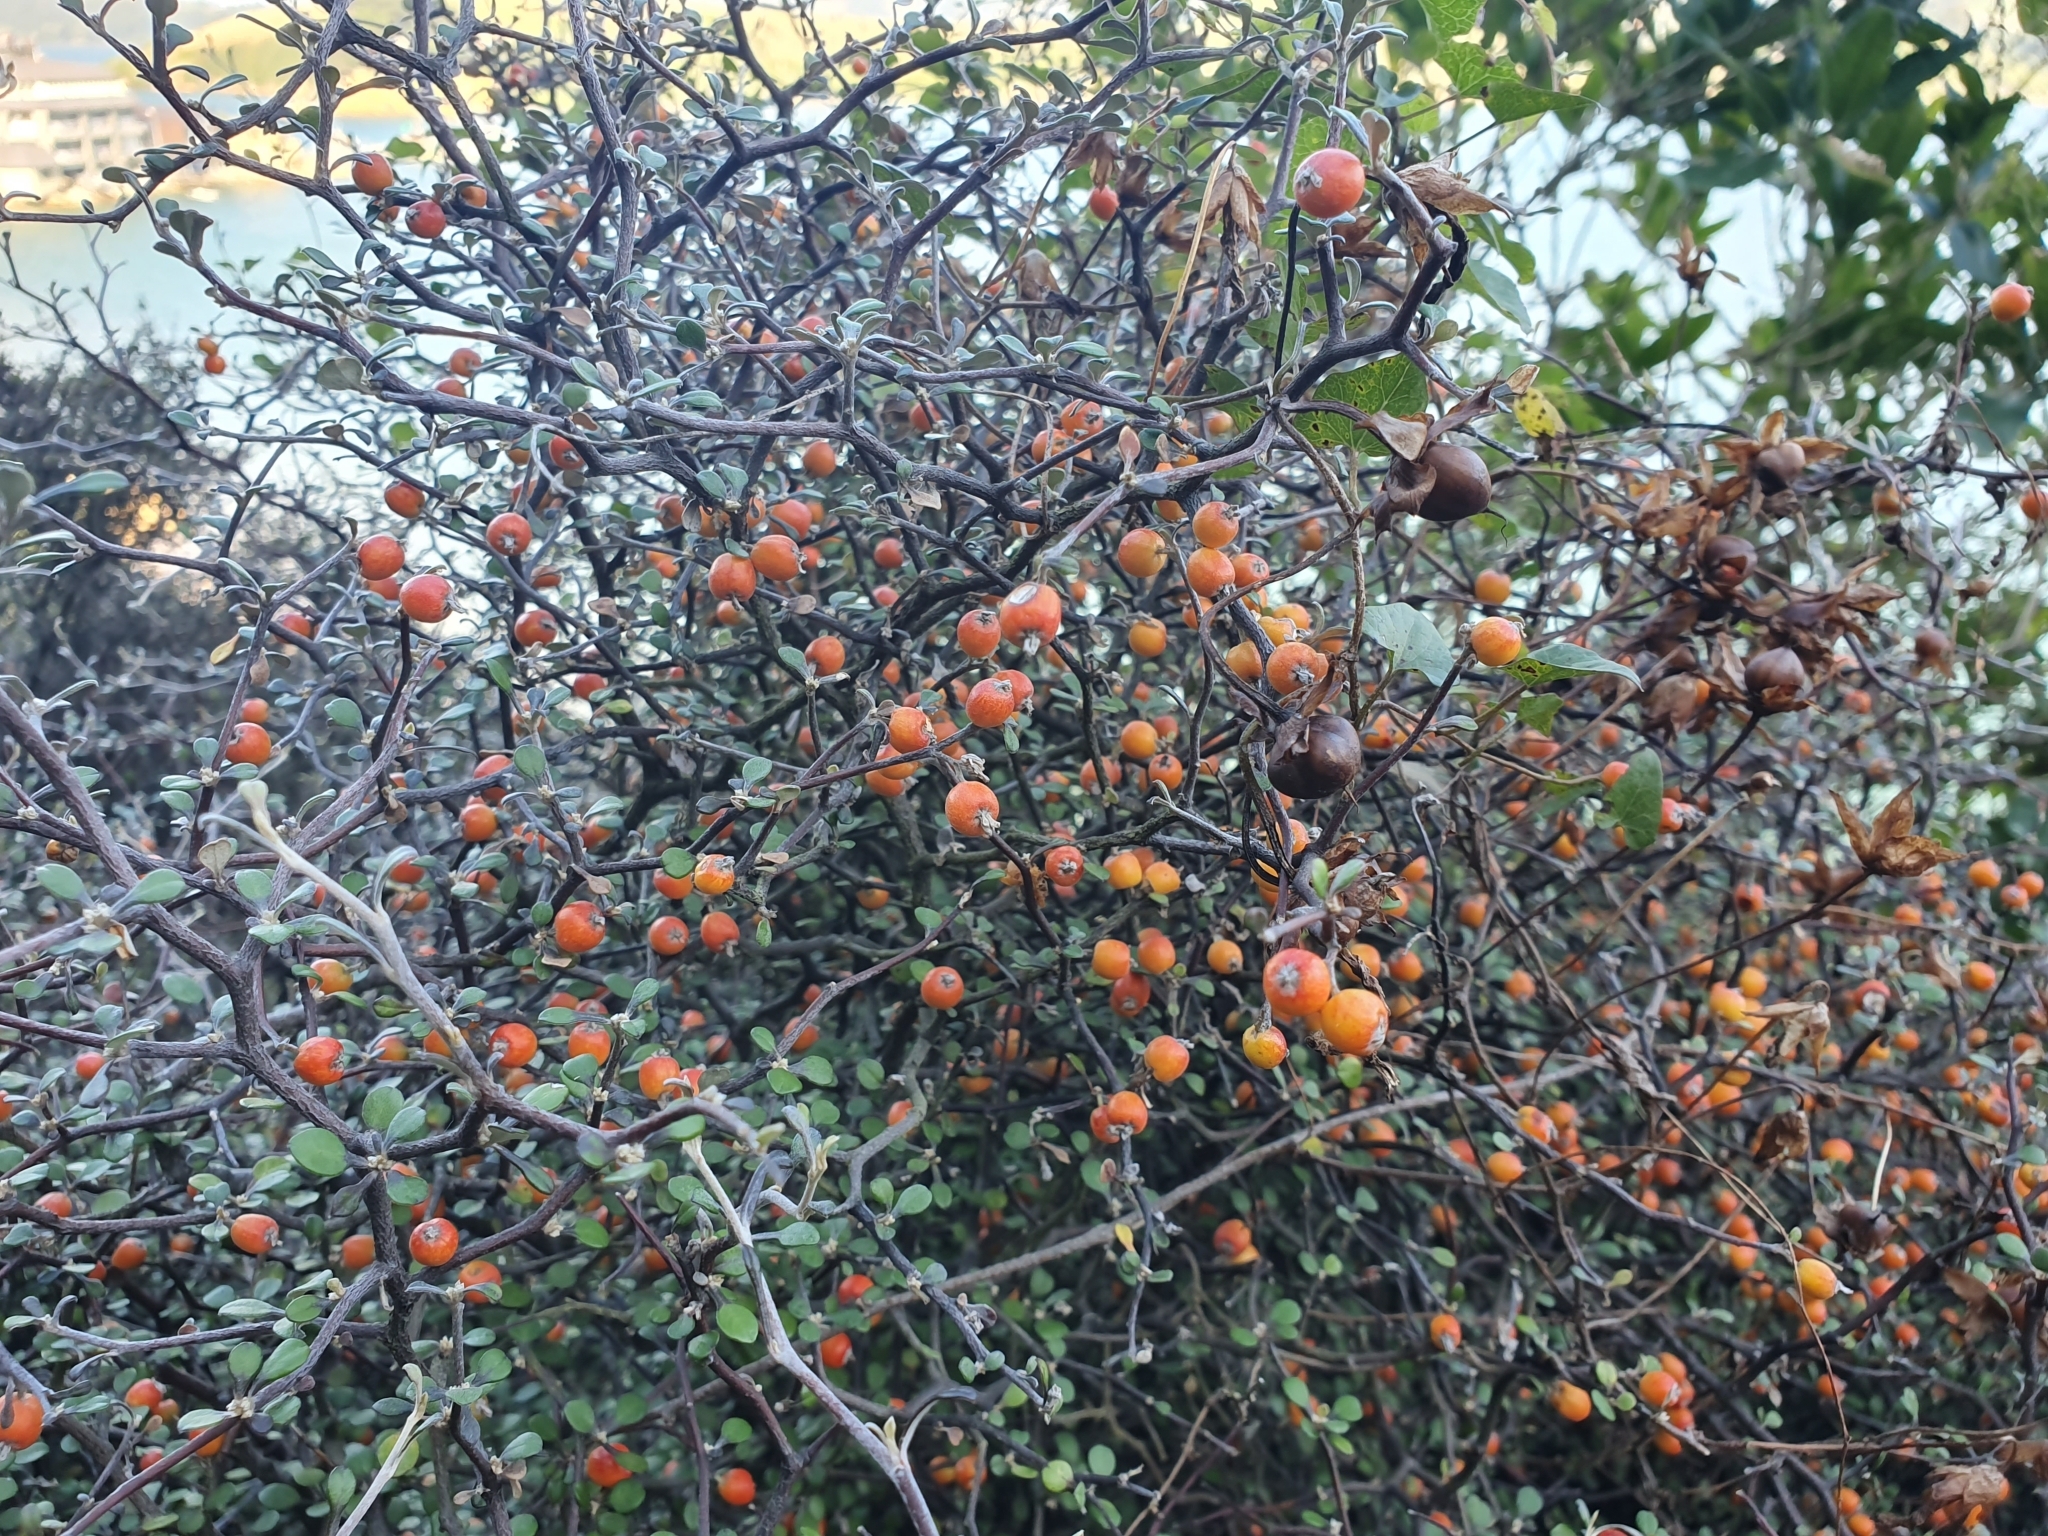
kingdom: Plantae
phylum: Tracheophyta
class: Magnoliopsida
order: Asterales
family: Argophyllaceae
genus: Corokia
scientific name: Corokia cotoneaster
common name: Wire nettingbush
